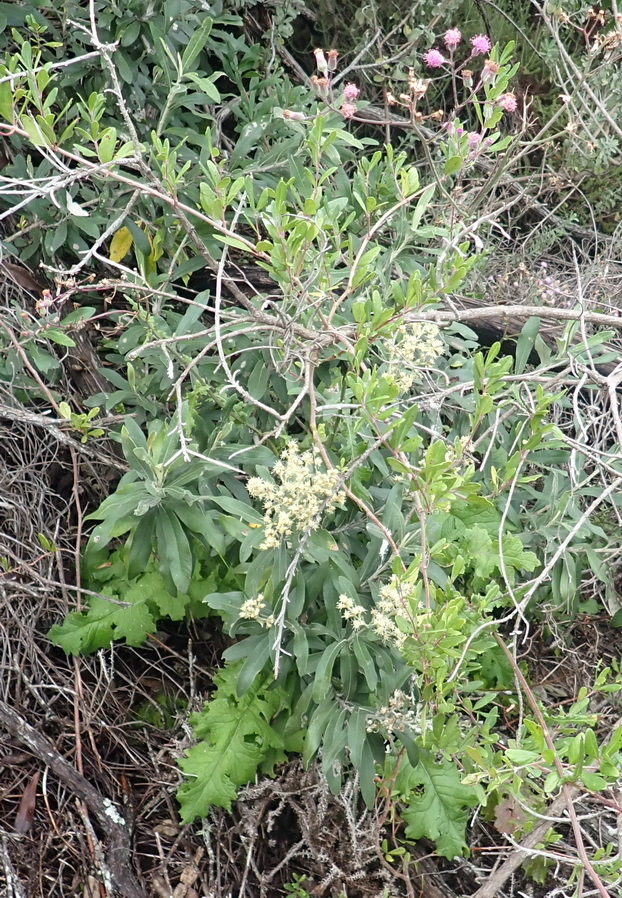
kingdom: Plantae
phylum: Tracheophyta
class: Magnoliopsida
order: Asterales
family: Asteraceae
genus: Senecio
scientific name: Senecio purpureus
